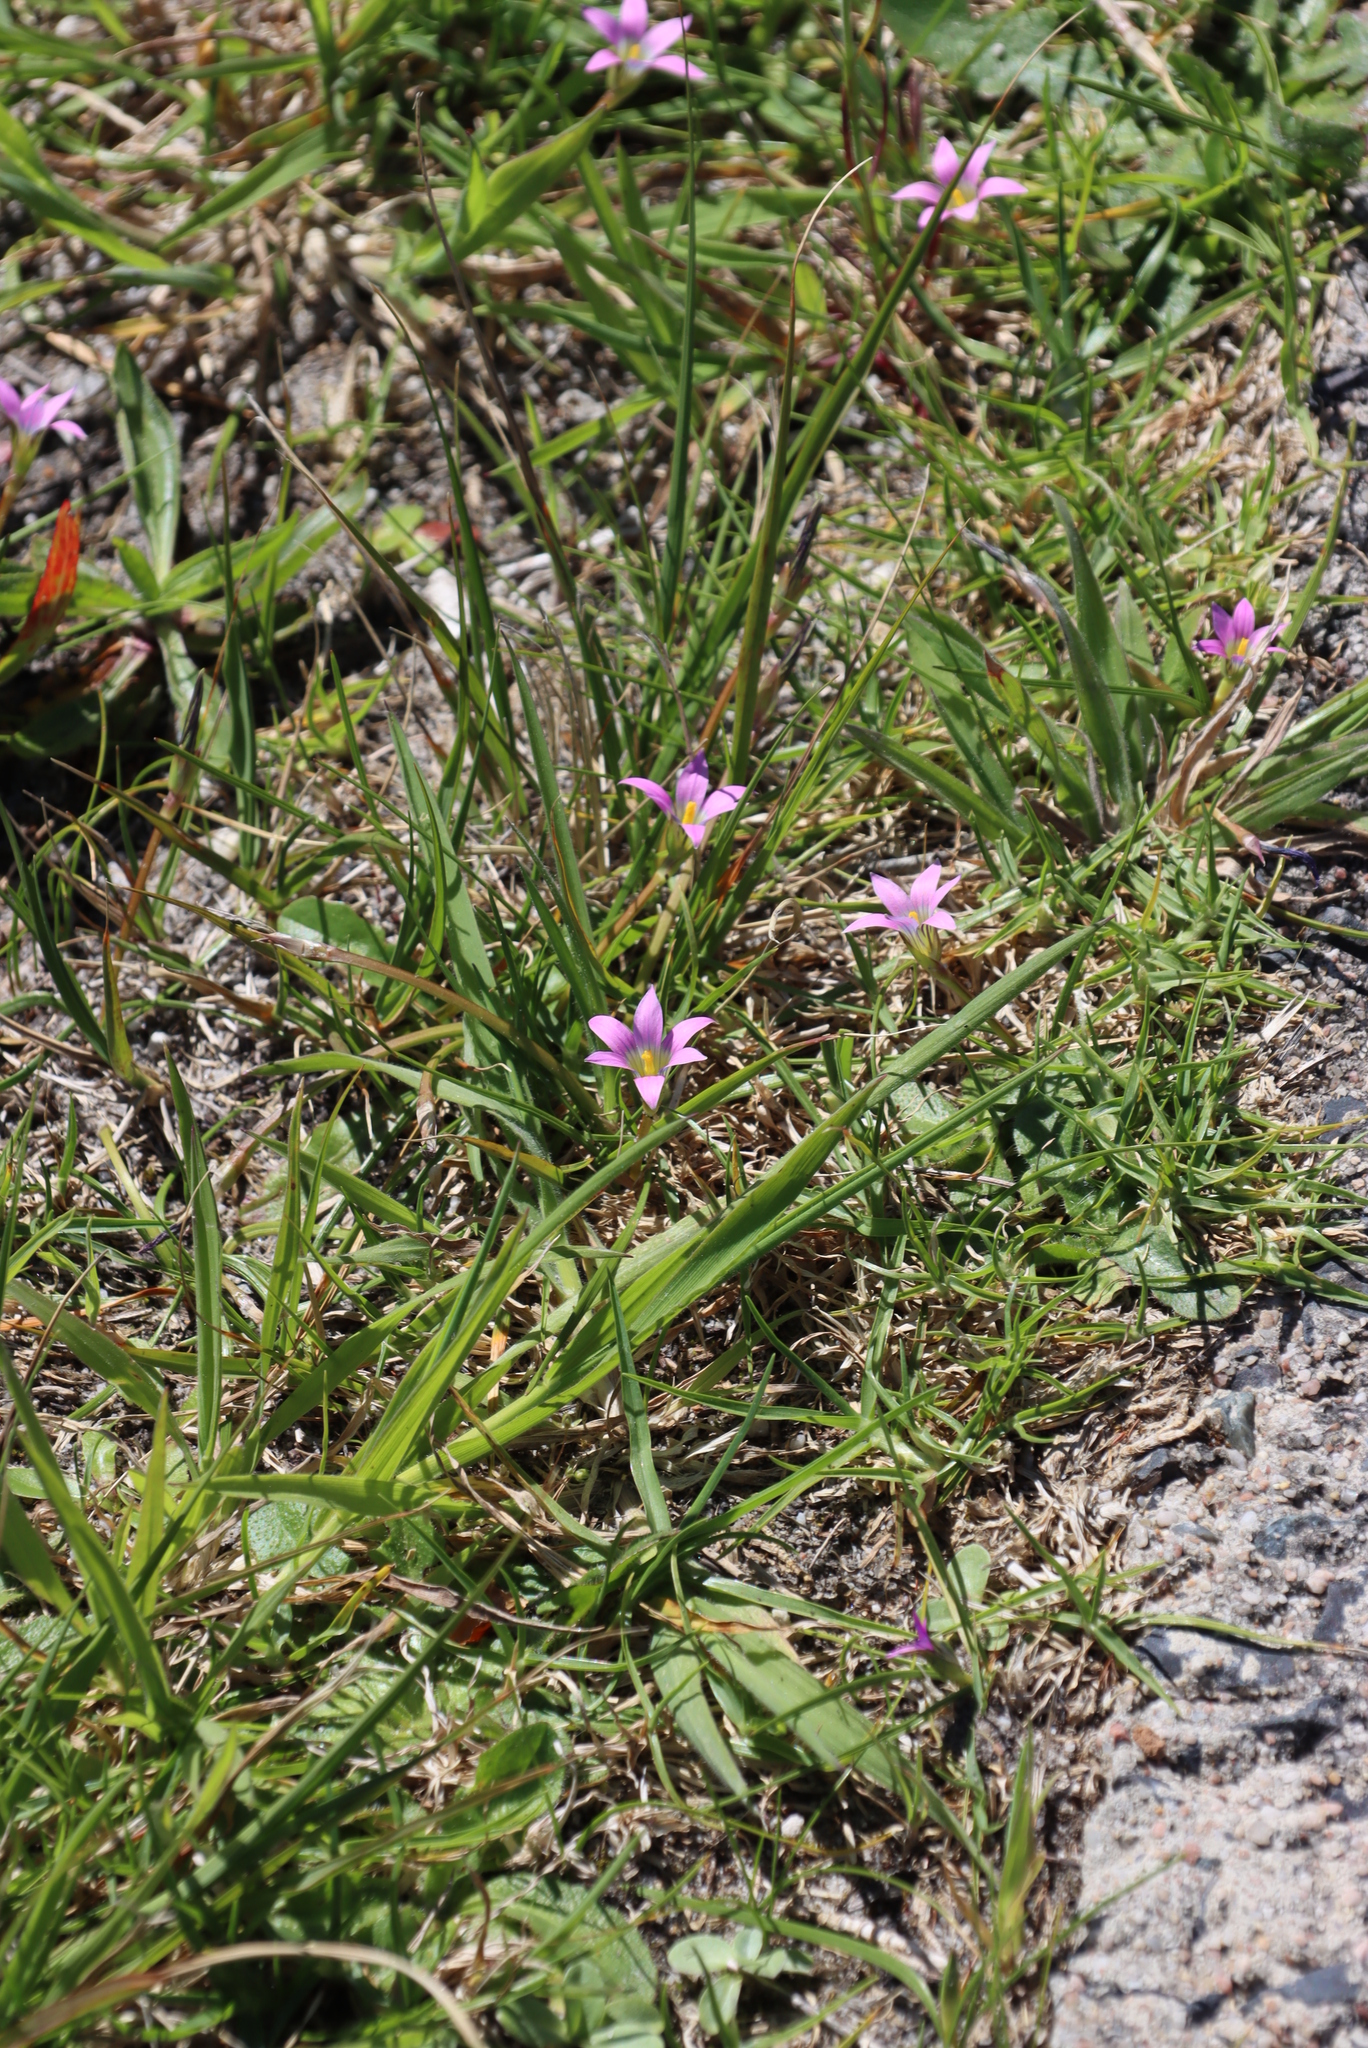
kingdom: Plantae
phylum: Tracheophyta
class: Liliopsida
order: Asparagales
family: Iridaceae
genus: Romulea
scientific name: Romulea rosea
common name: Oniongrass
